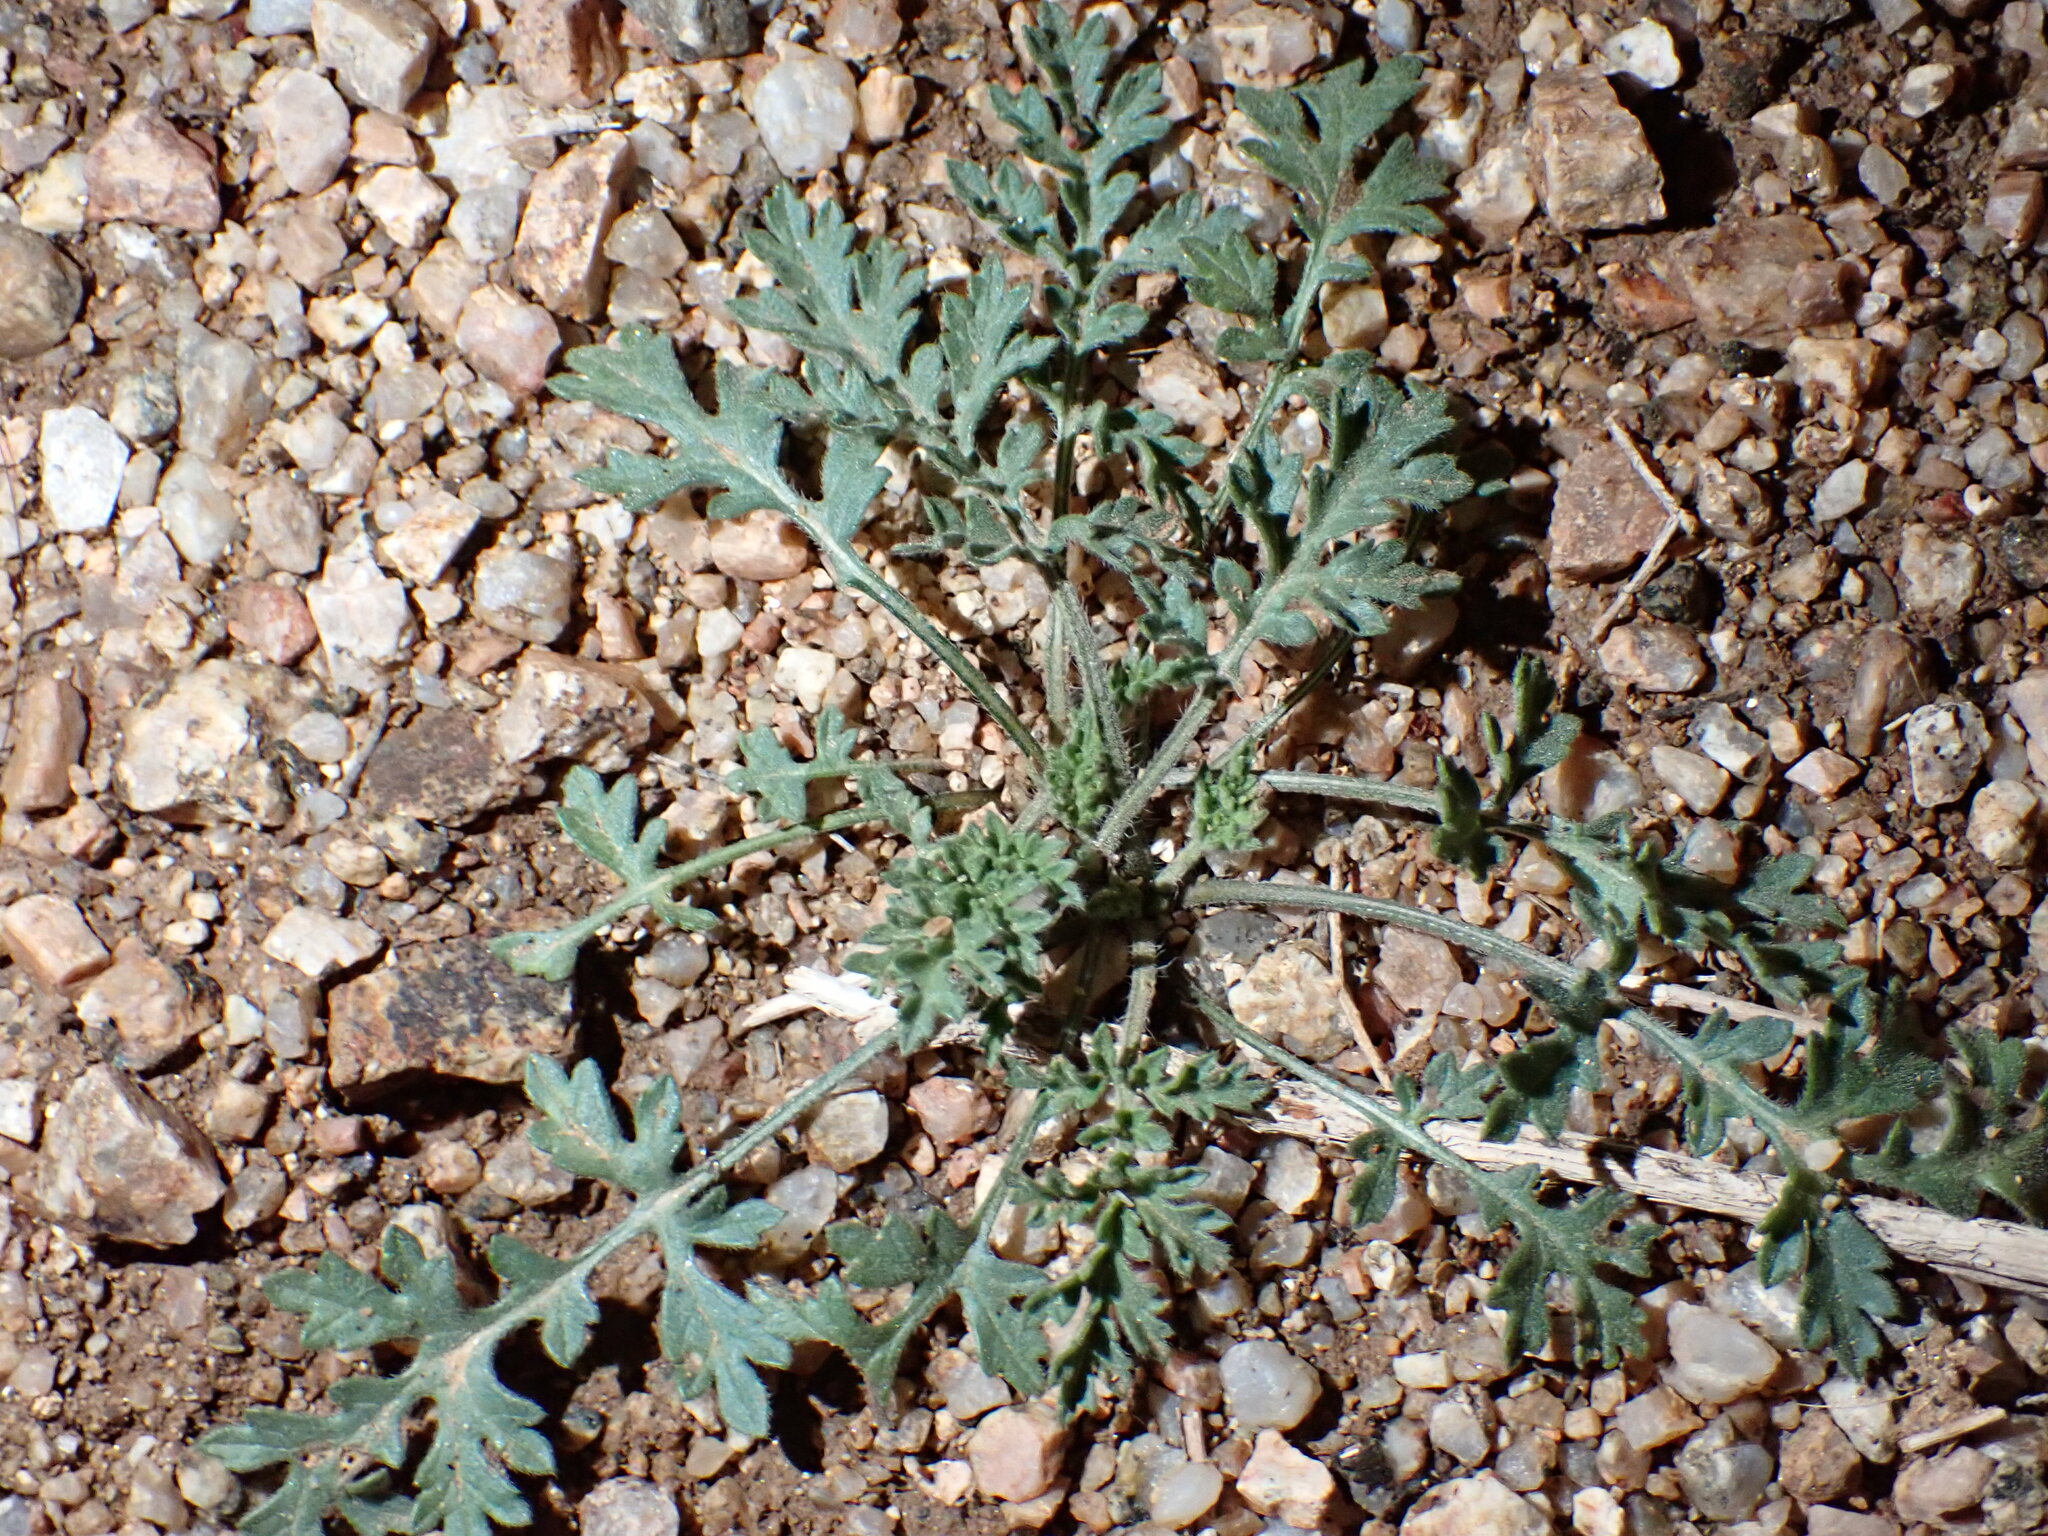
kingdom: Plantae
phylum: Tracheophyta
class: Magnoliopsida
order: Asterales
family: Asteraceae
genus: Ambrosia
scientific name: Ambrosia confertiflora
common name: Bur ragweed
